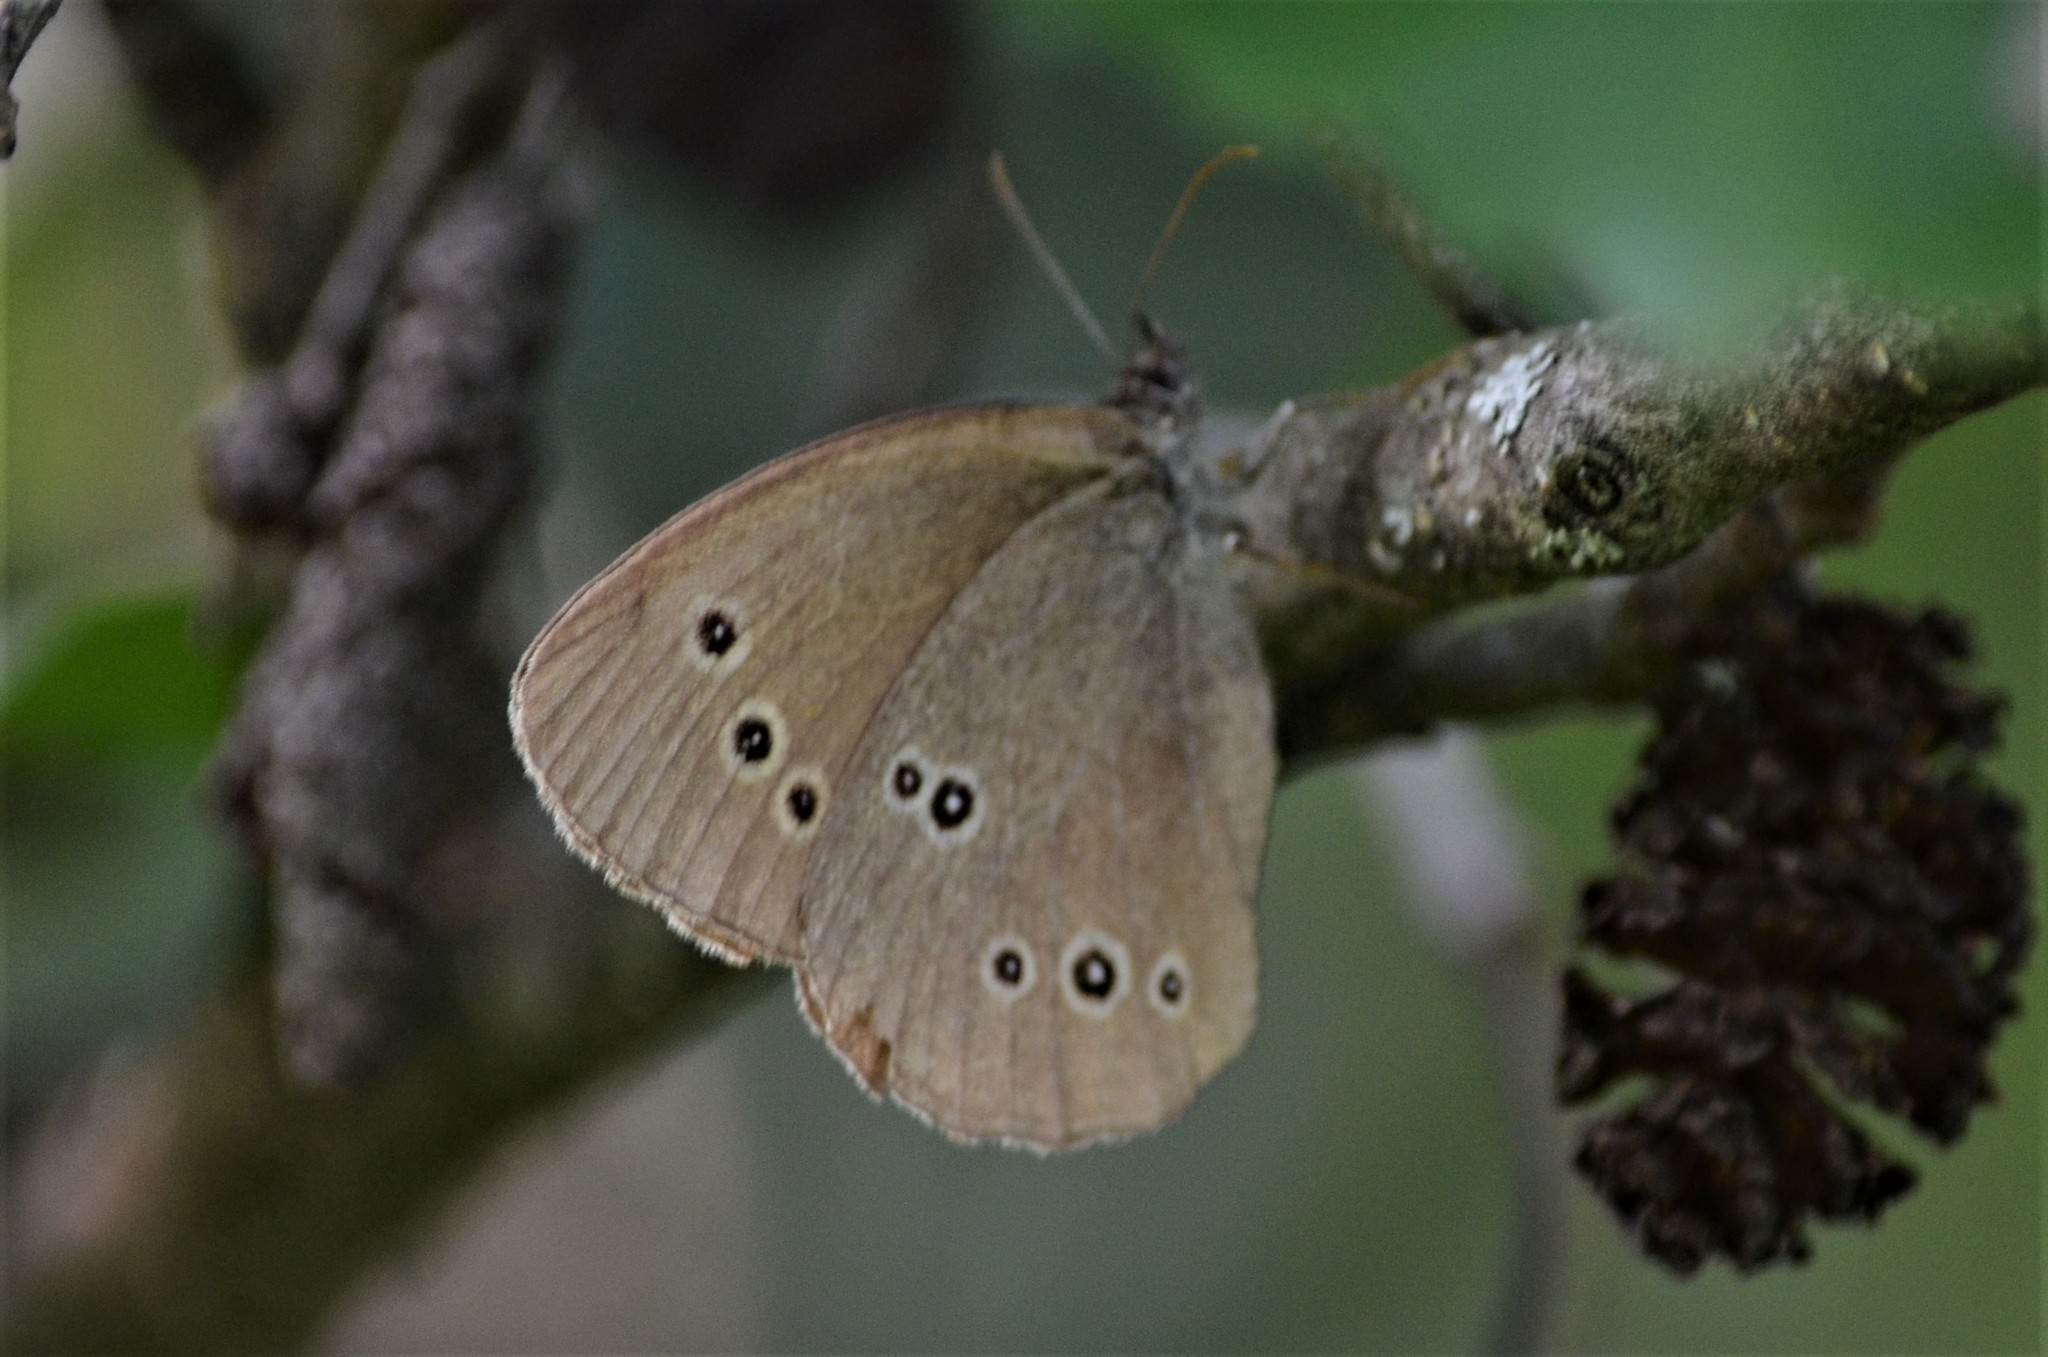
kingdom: Animalia
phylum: Arthropoda
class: Insecta
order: Lepidoptera
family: Nymphalidae
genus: Aphantopus
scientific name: Aphantopus hyperantus
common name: Ringlet
